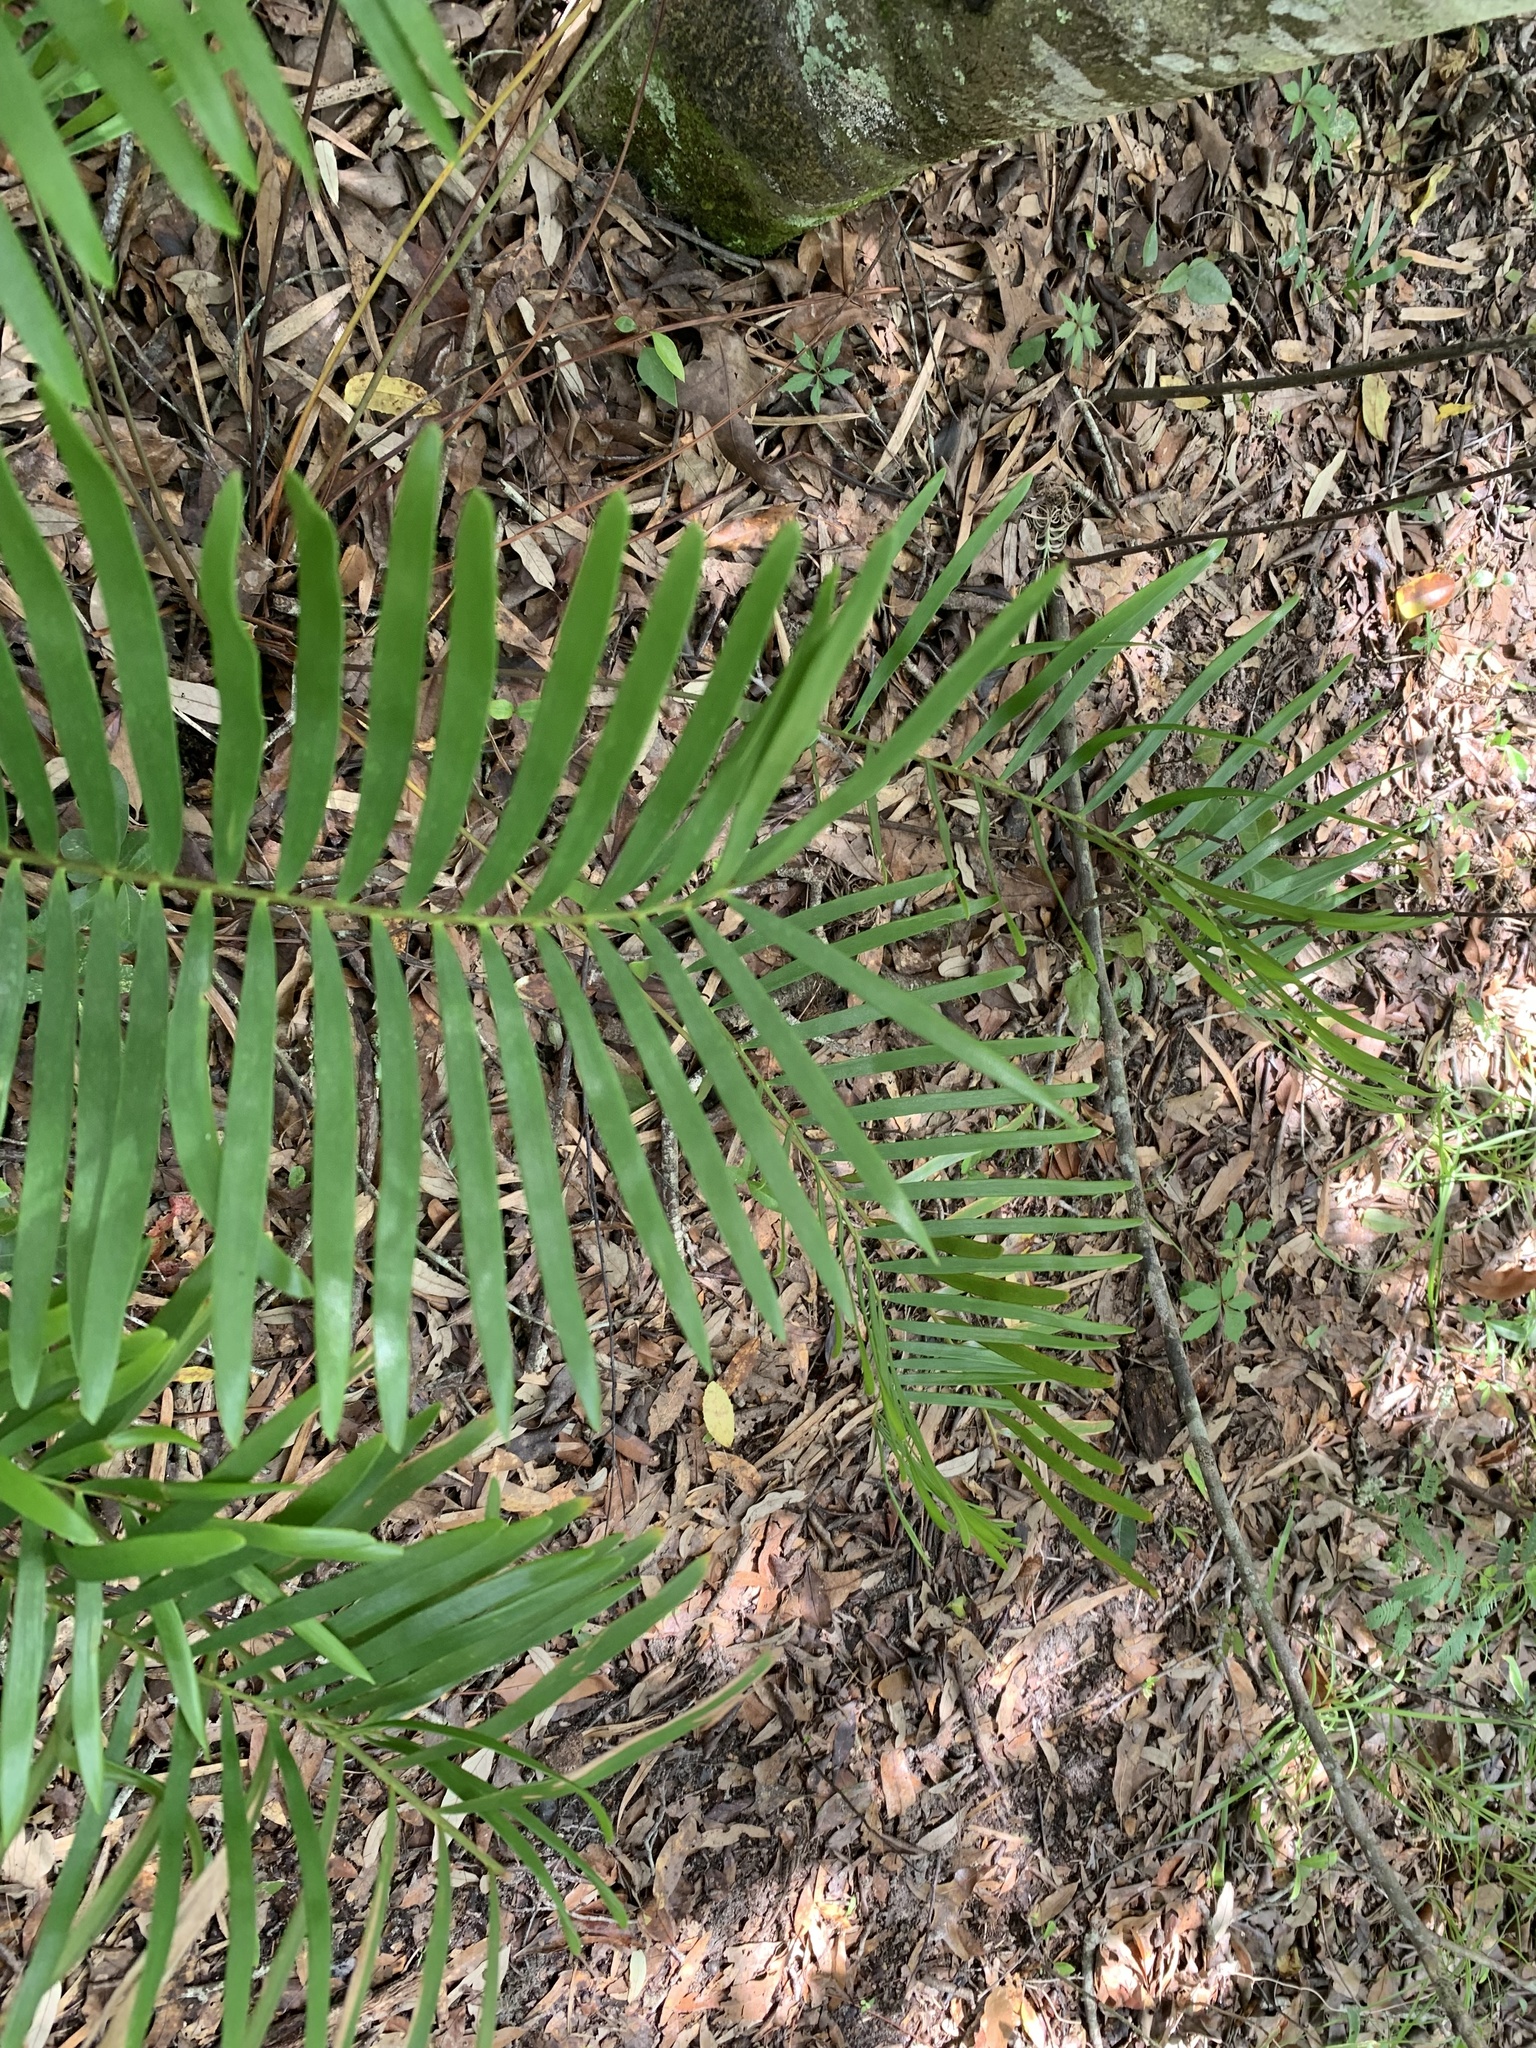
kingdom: Plantae
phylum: Tracheophyta
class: Cycadopsida
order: Cycadales
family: Zamiaceae
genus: Zamia
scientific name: Zamia integrifolia
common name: Florida arrowroot
